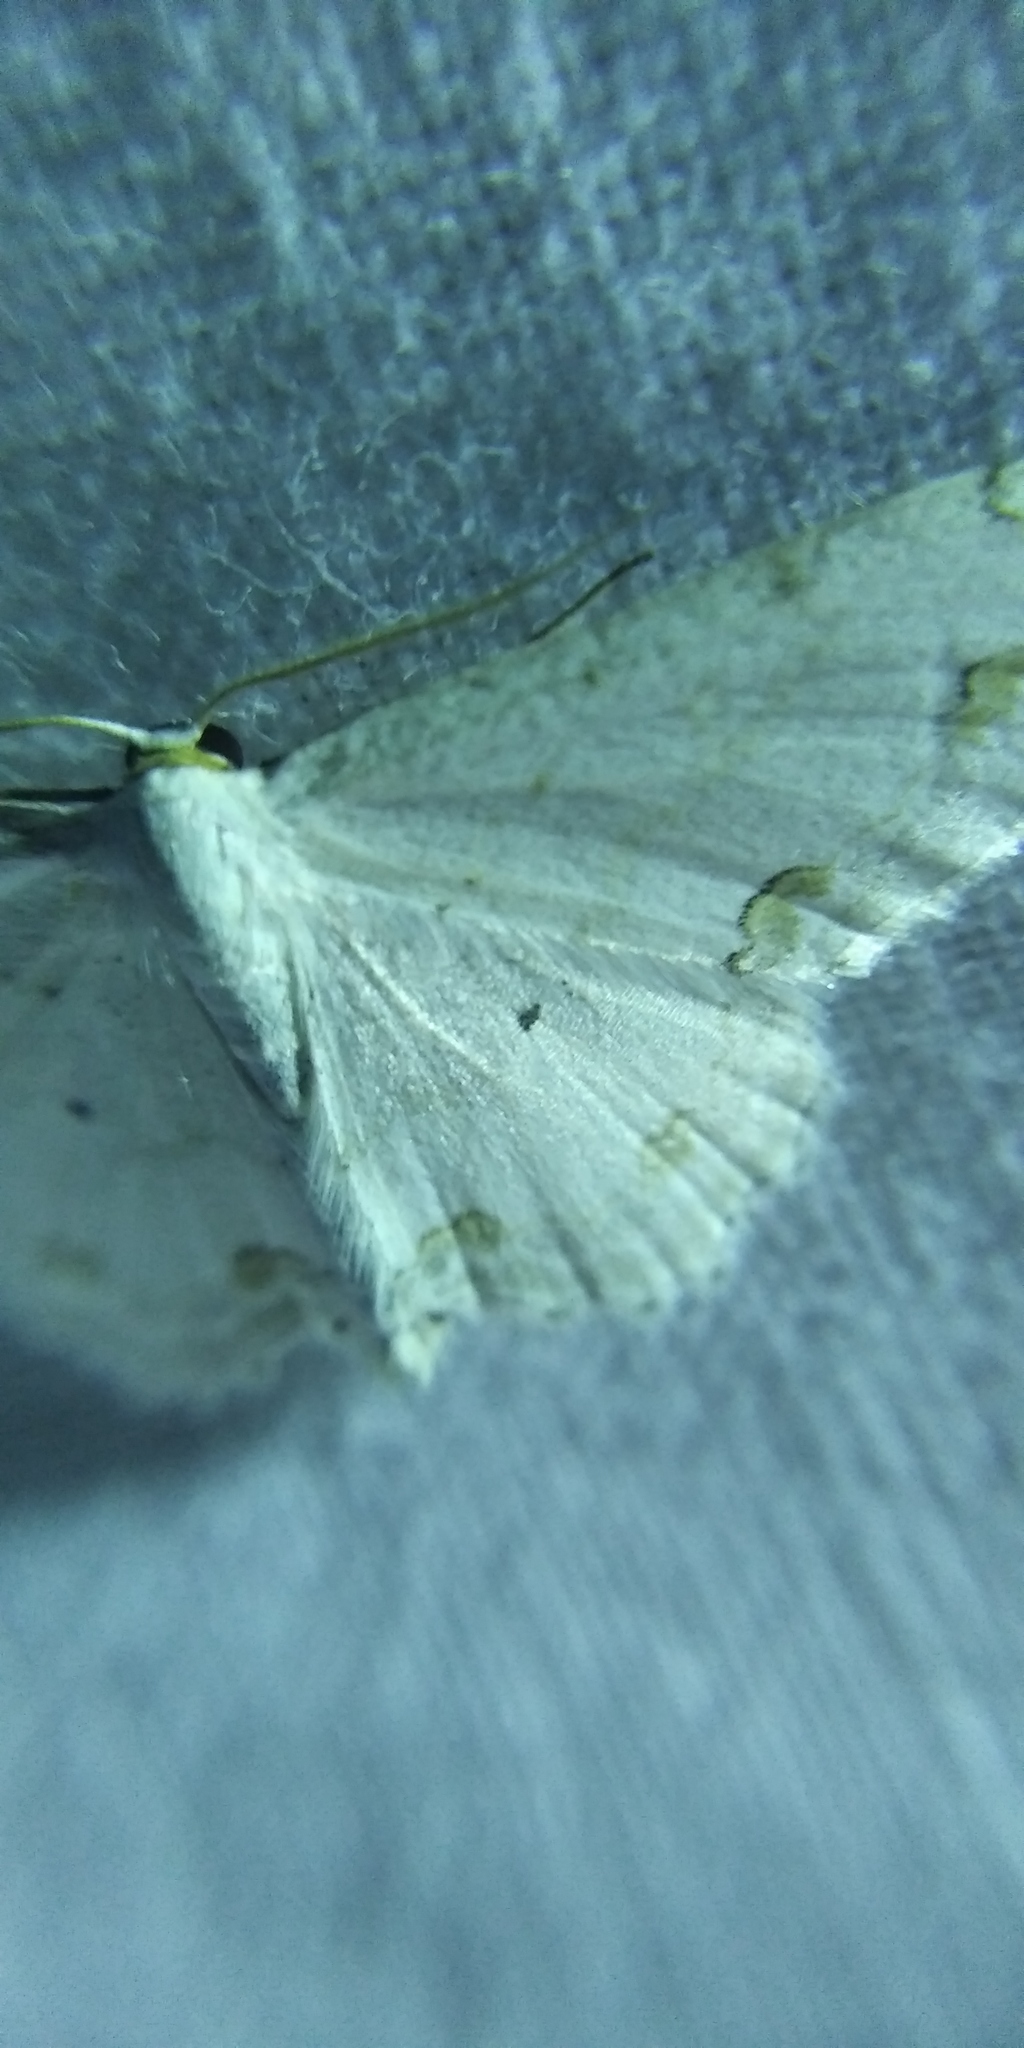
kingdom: Animalia
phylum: Arthropoda
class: Insecta
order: Lepidoptera
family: Geometridae
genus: Scopula
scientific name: Scopula ornata
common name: Lace border
